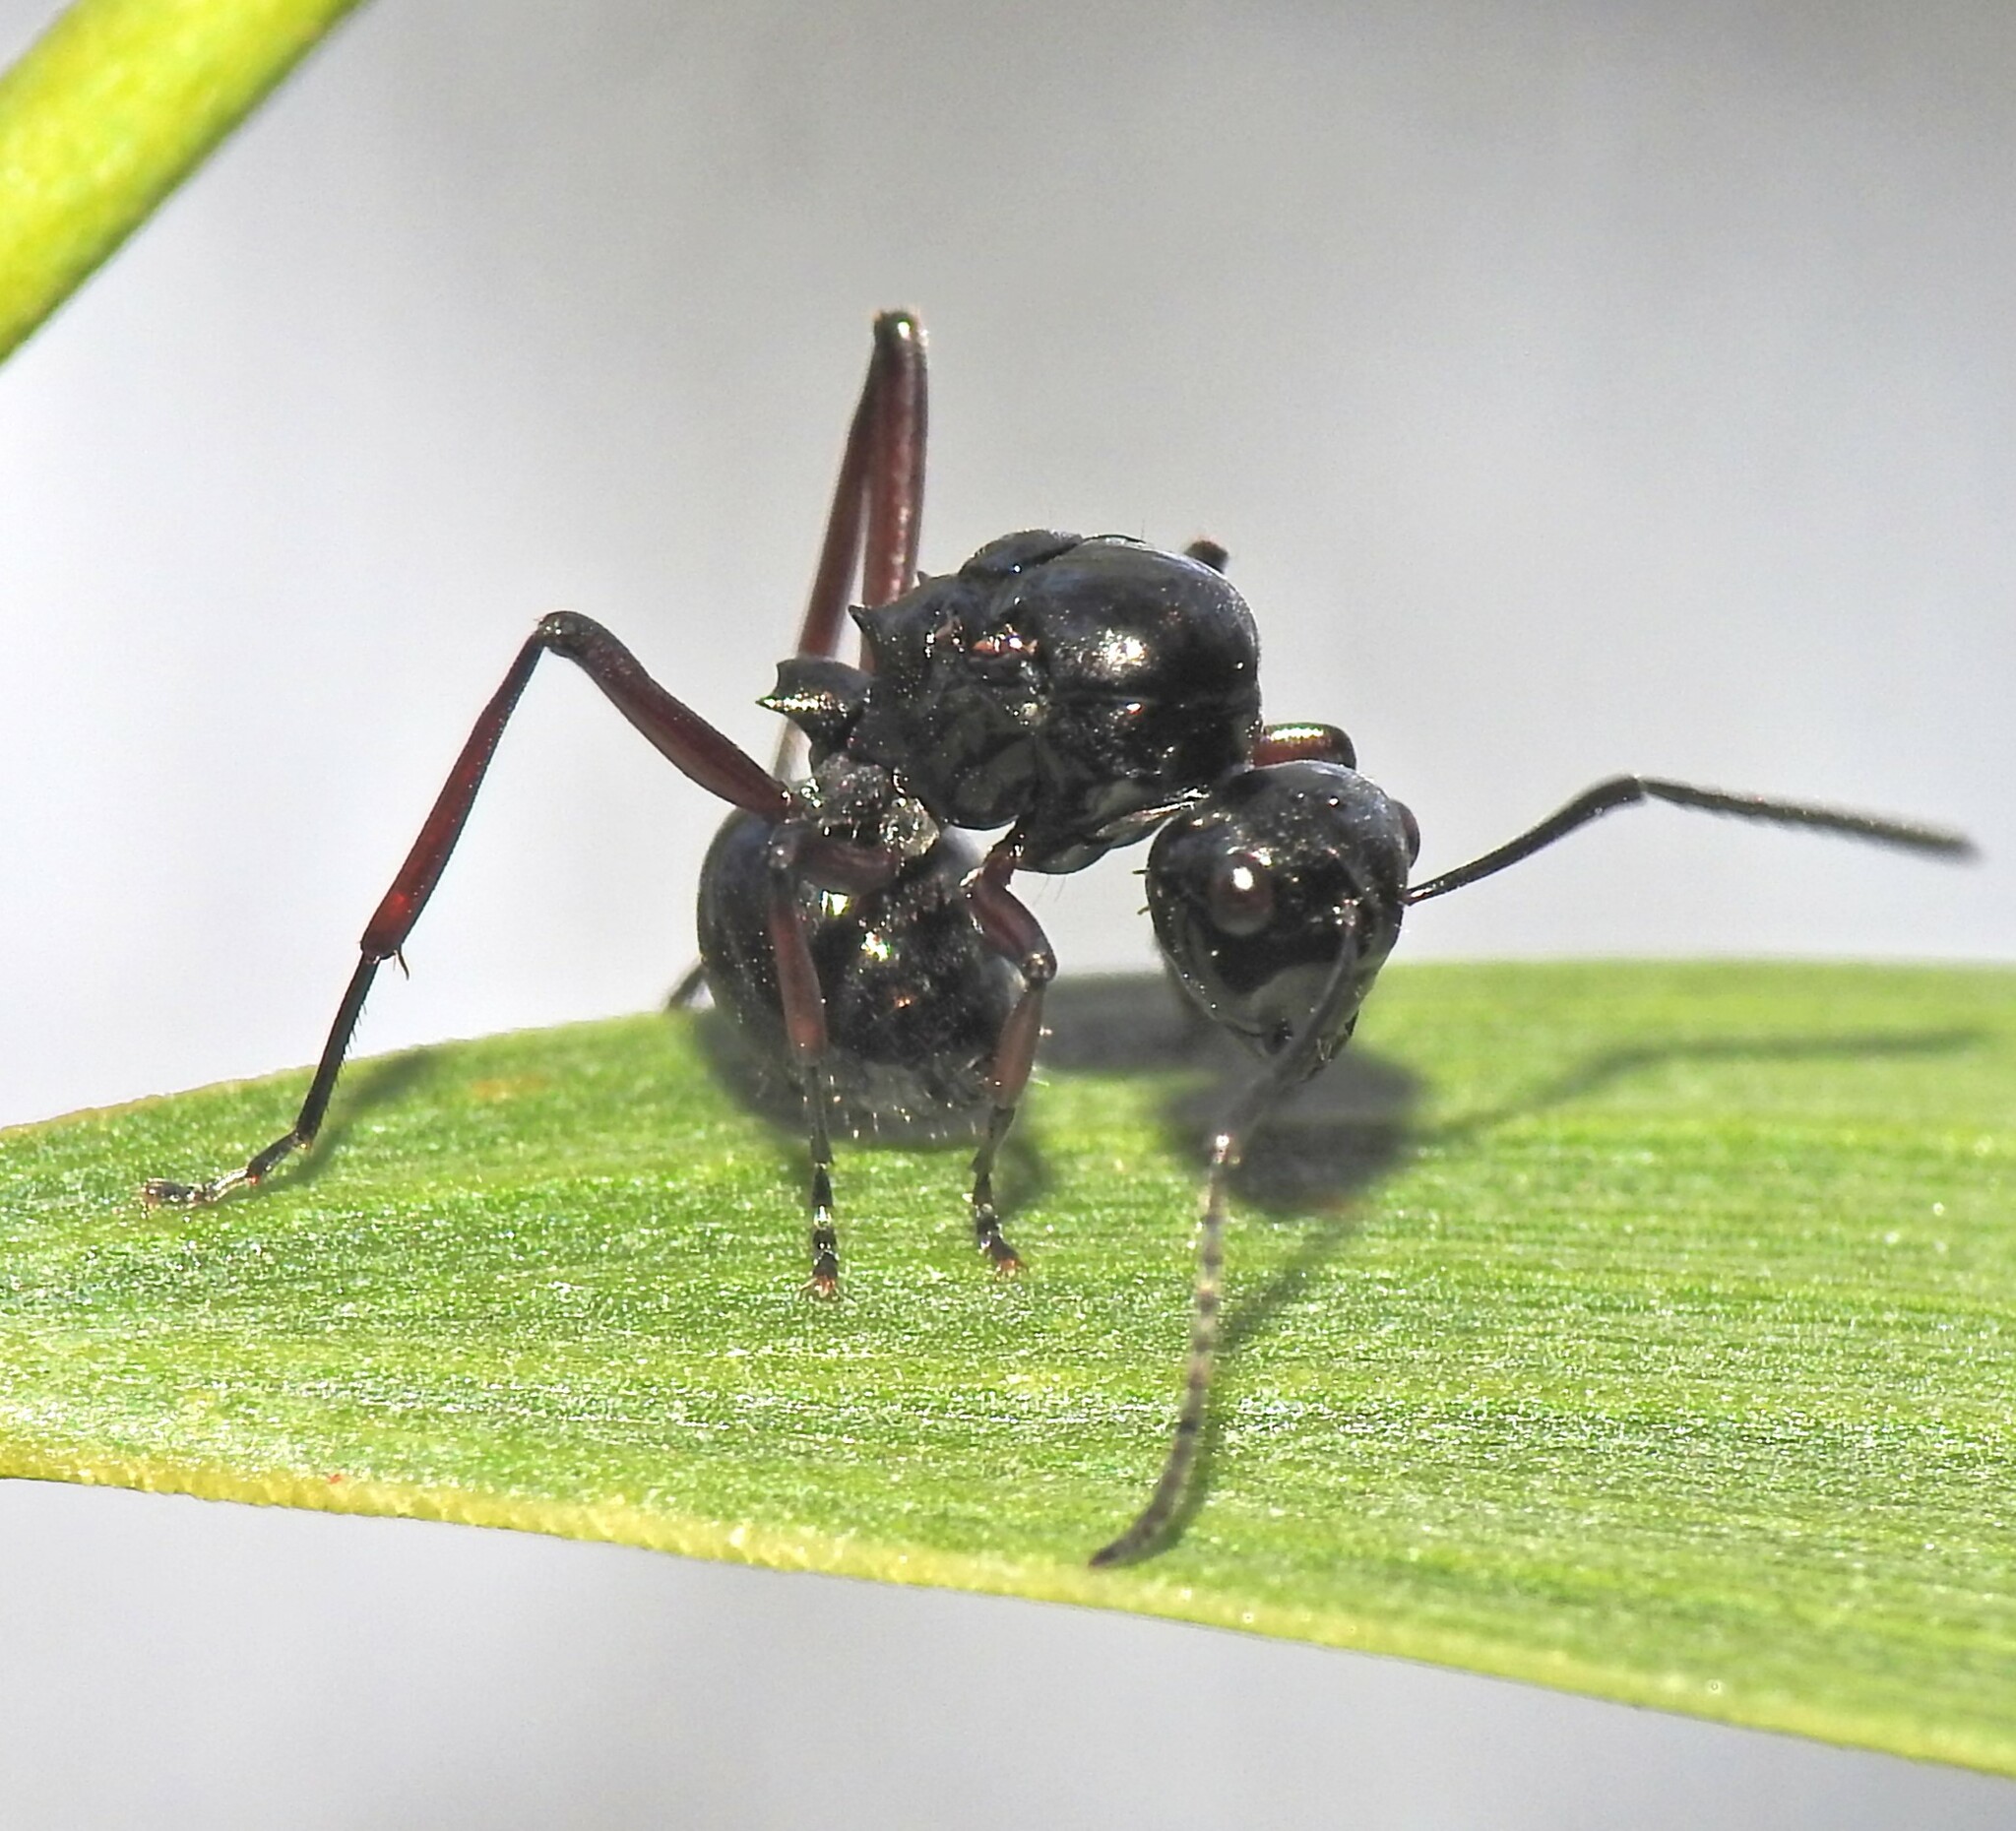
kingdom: Animalia
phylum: Arthropoda
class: Insecta
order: Hymenoptera
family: Formicidae
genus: Polyrhachis
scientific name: Polyrhachis australis
